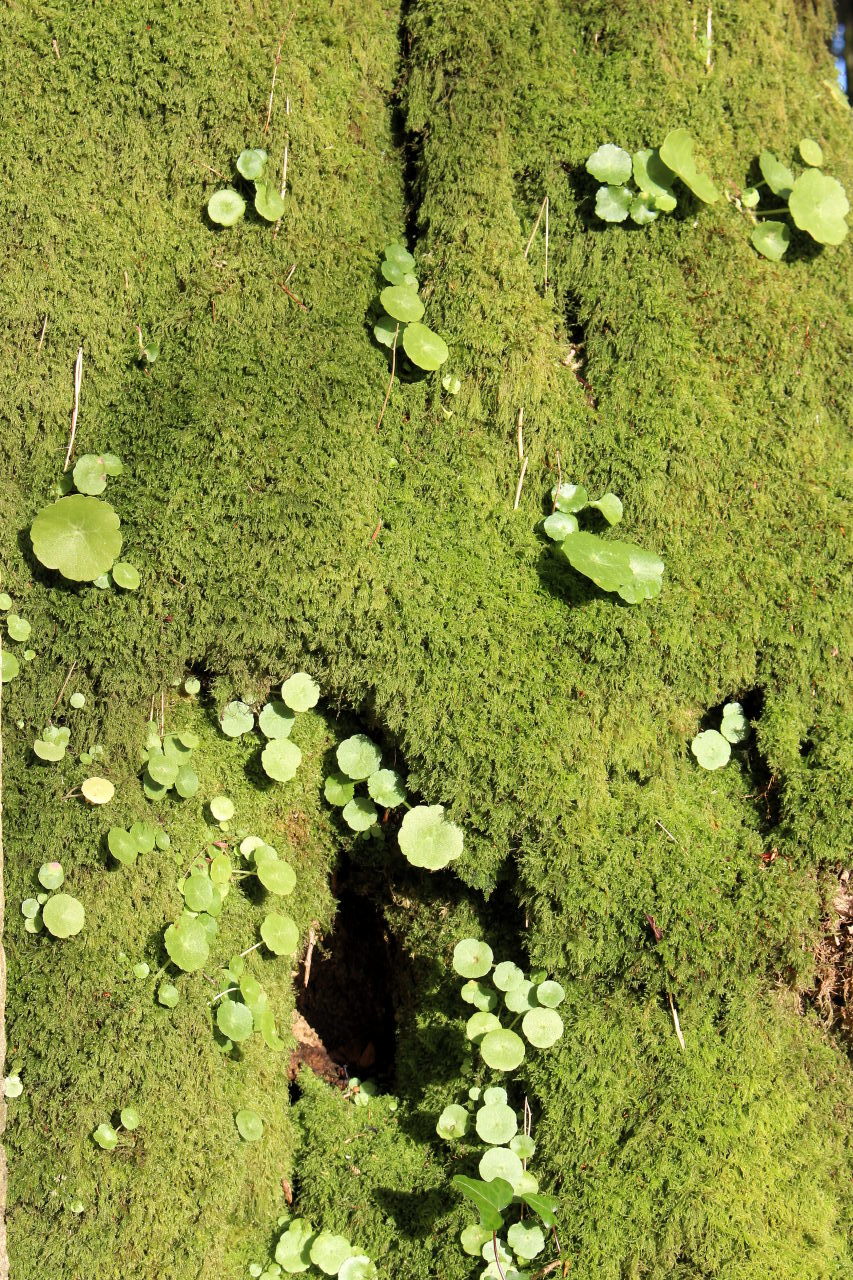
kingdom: Plantae
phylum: Tracheophyta
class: Magnoliopsida
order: Saxifragales
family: Crassulaceae
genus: Umbilicus
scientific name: Umbilicus rupestris
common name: Navelwort
